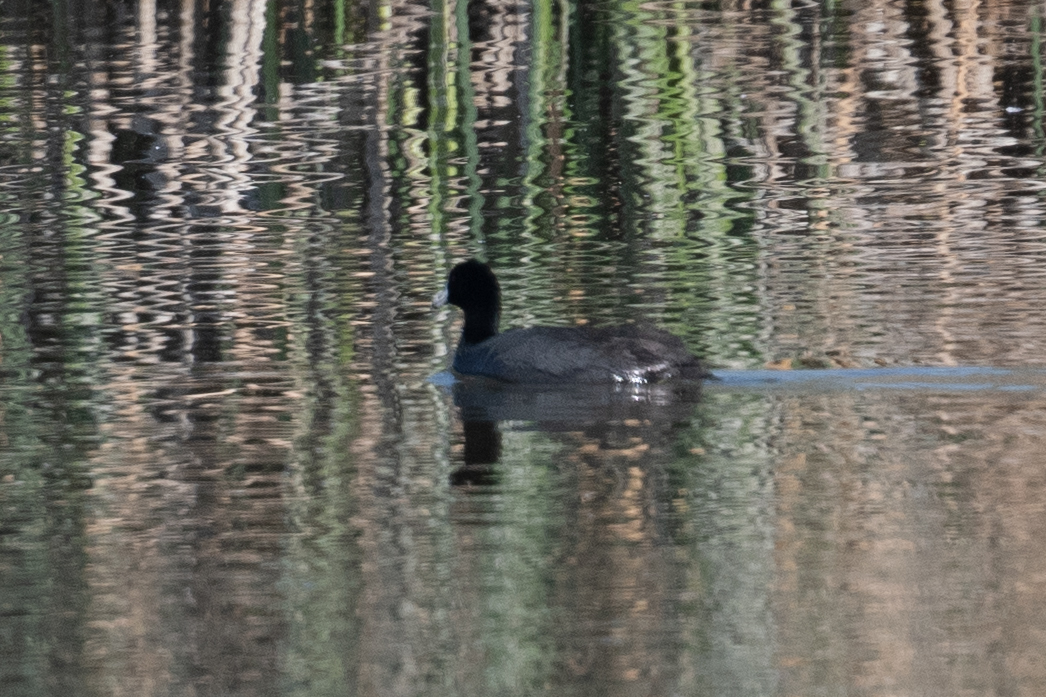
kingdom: Animalia
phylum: Chordata
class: Aves
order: Gruiformes
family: Rallidae
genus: Fulica
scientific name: Fulica americana
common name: American coot
